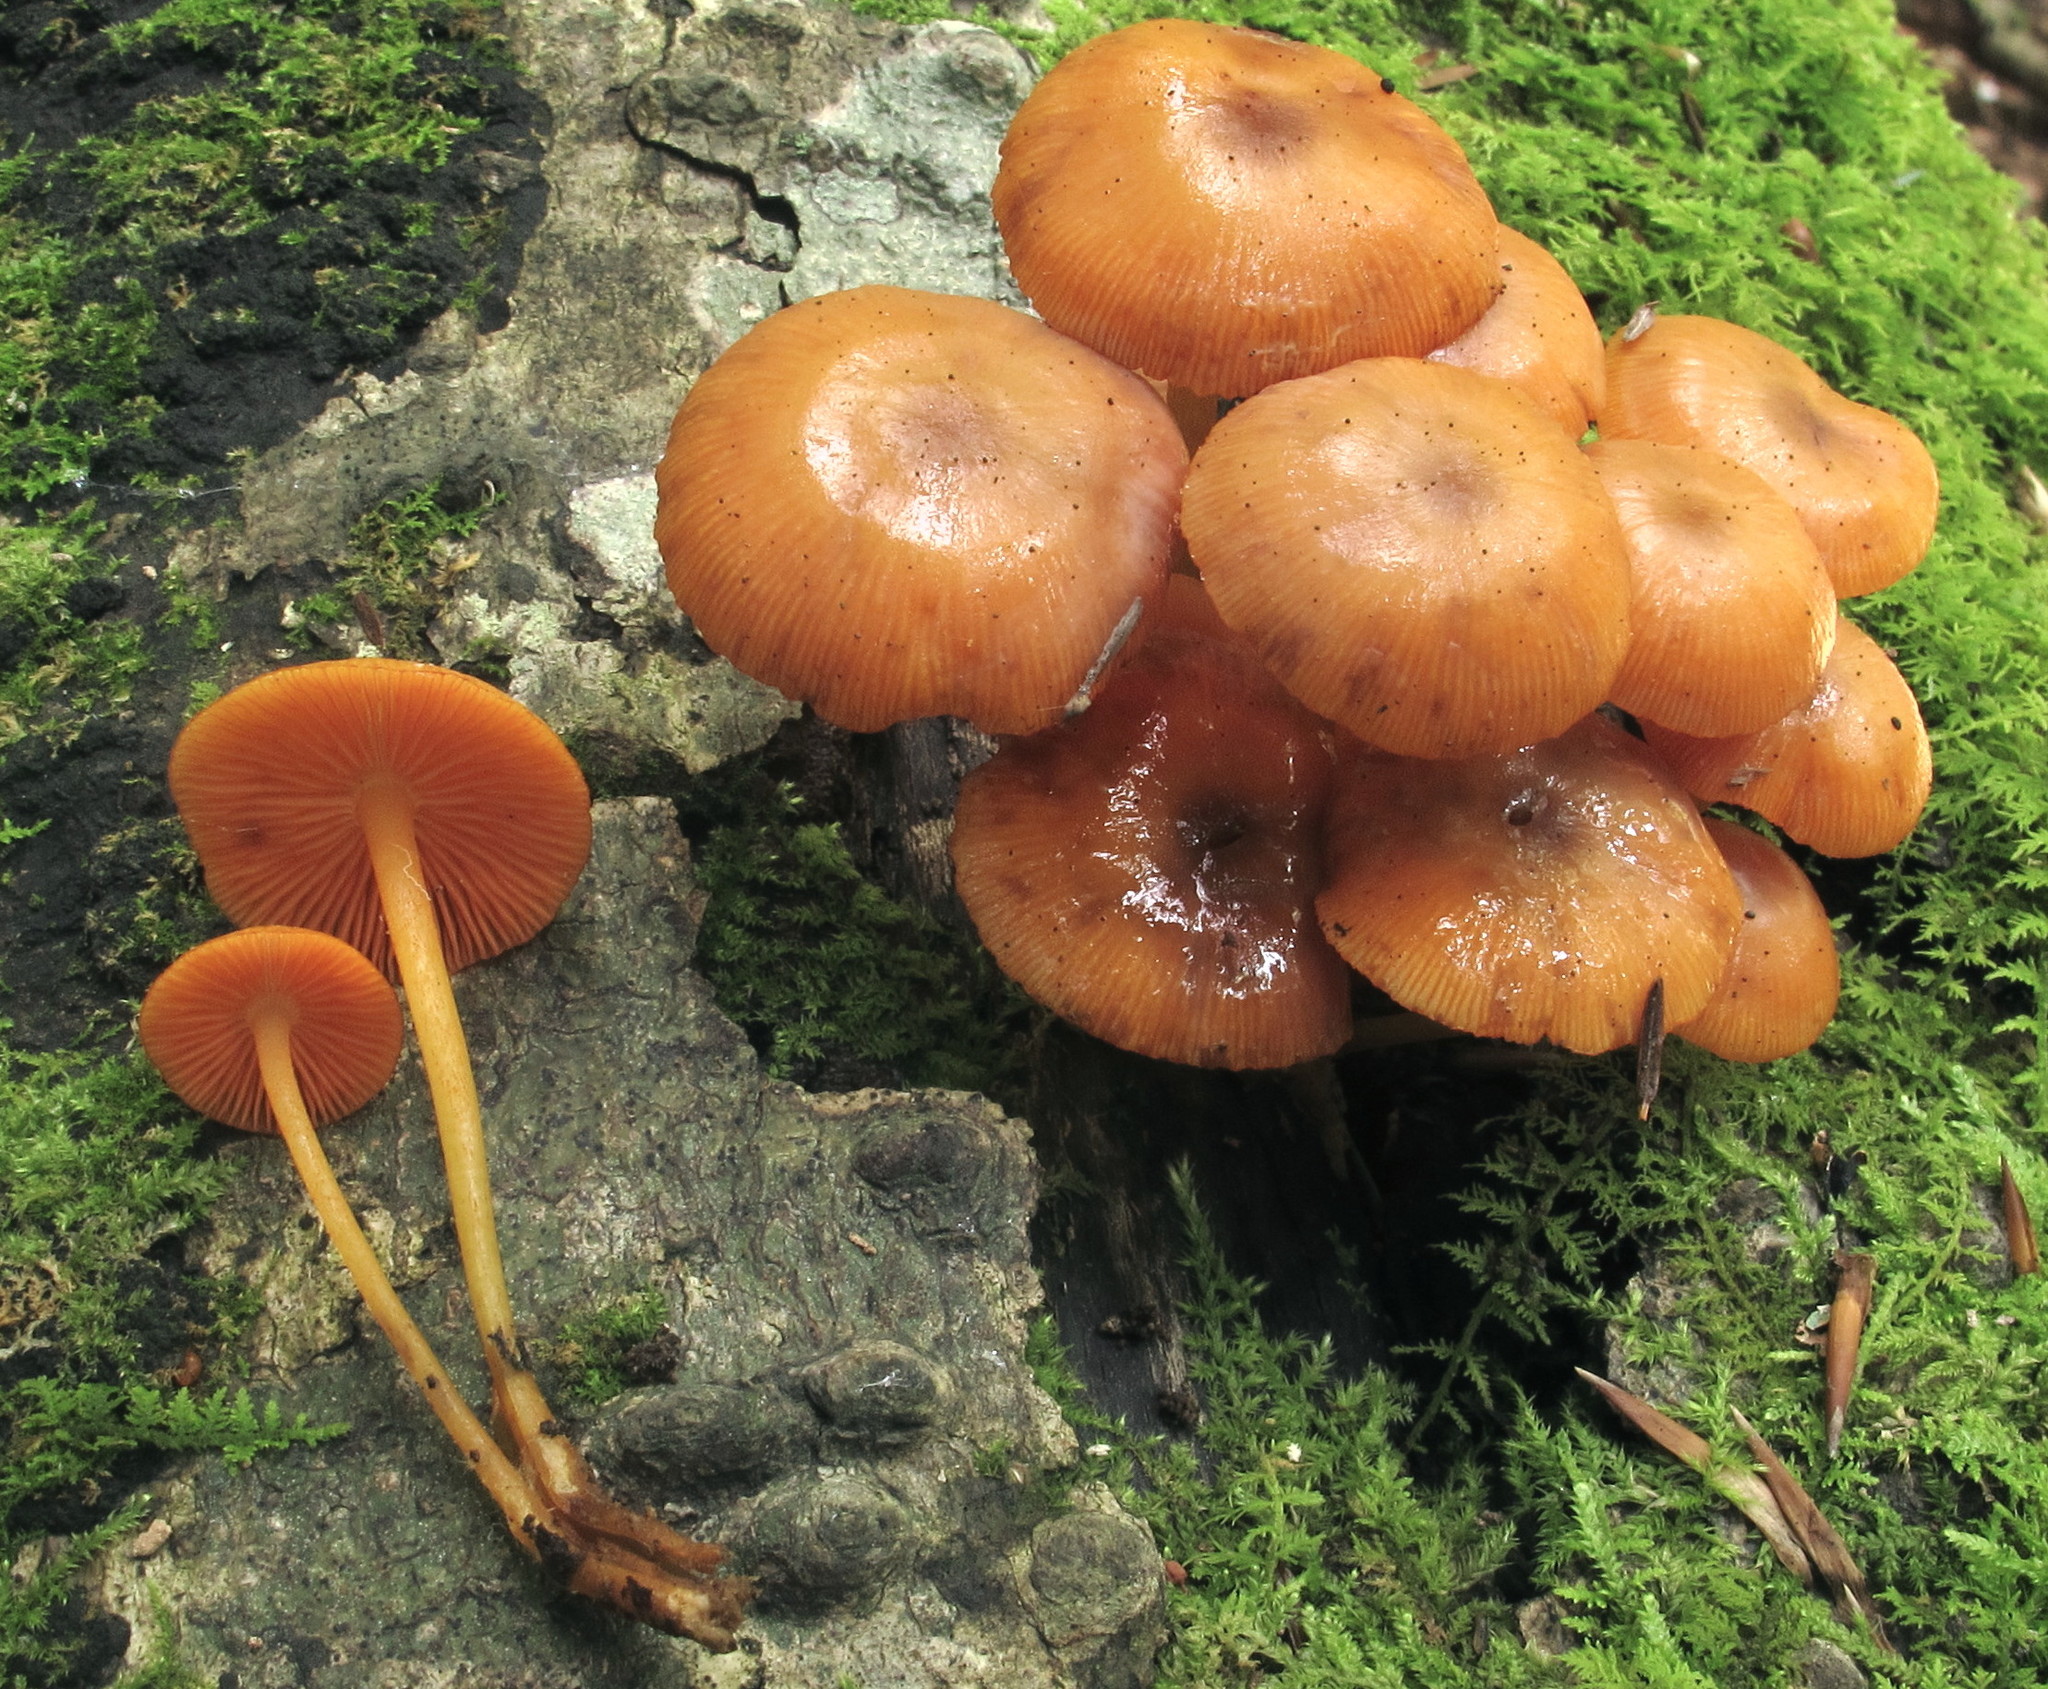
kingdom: Fungi
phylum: Basidiomycota
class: Agaricomycetes
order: Agaricales
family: Mycenaceae
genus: Mycena
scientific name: Mycena leaiana
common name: Orange mycena
